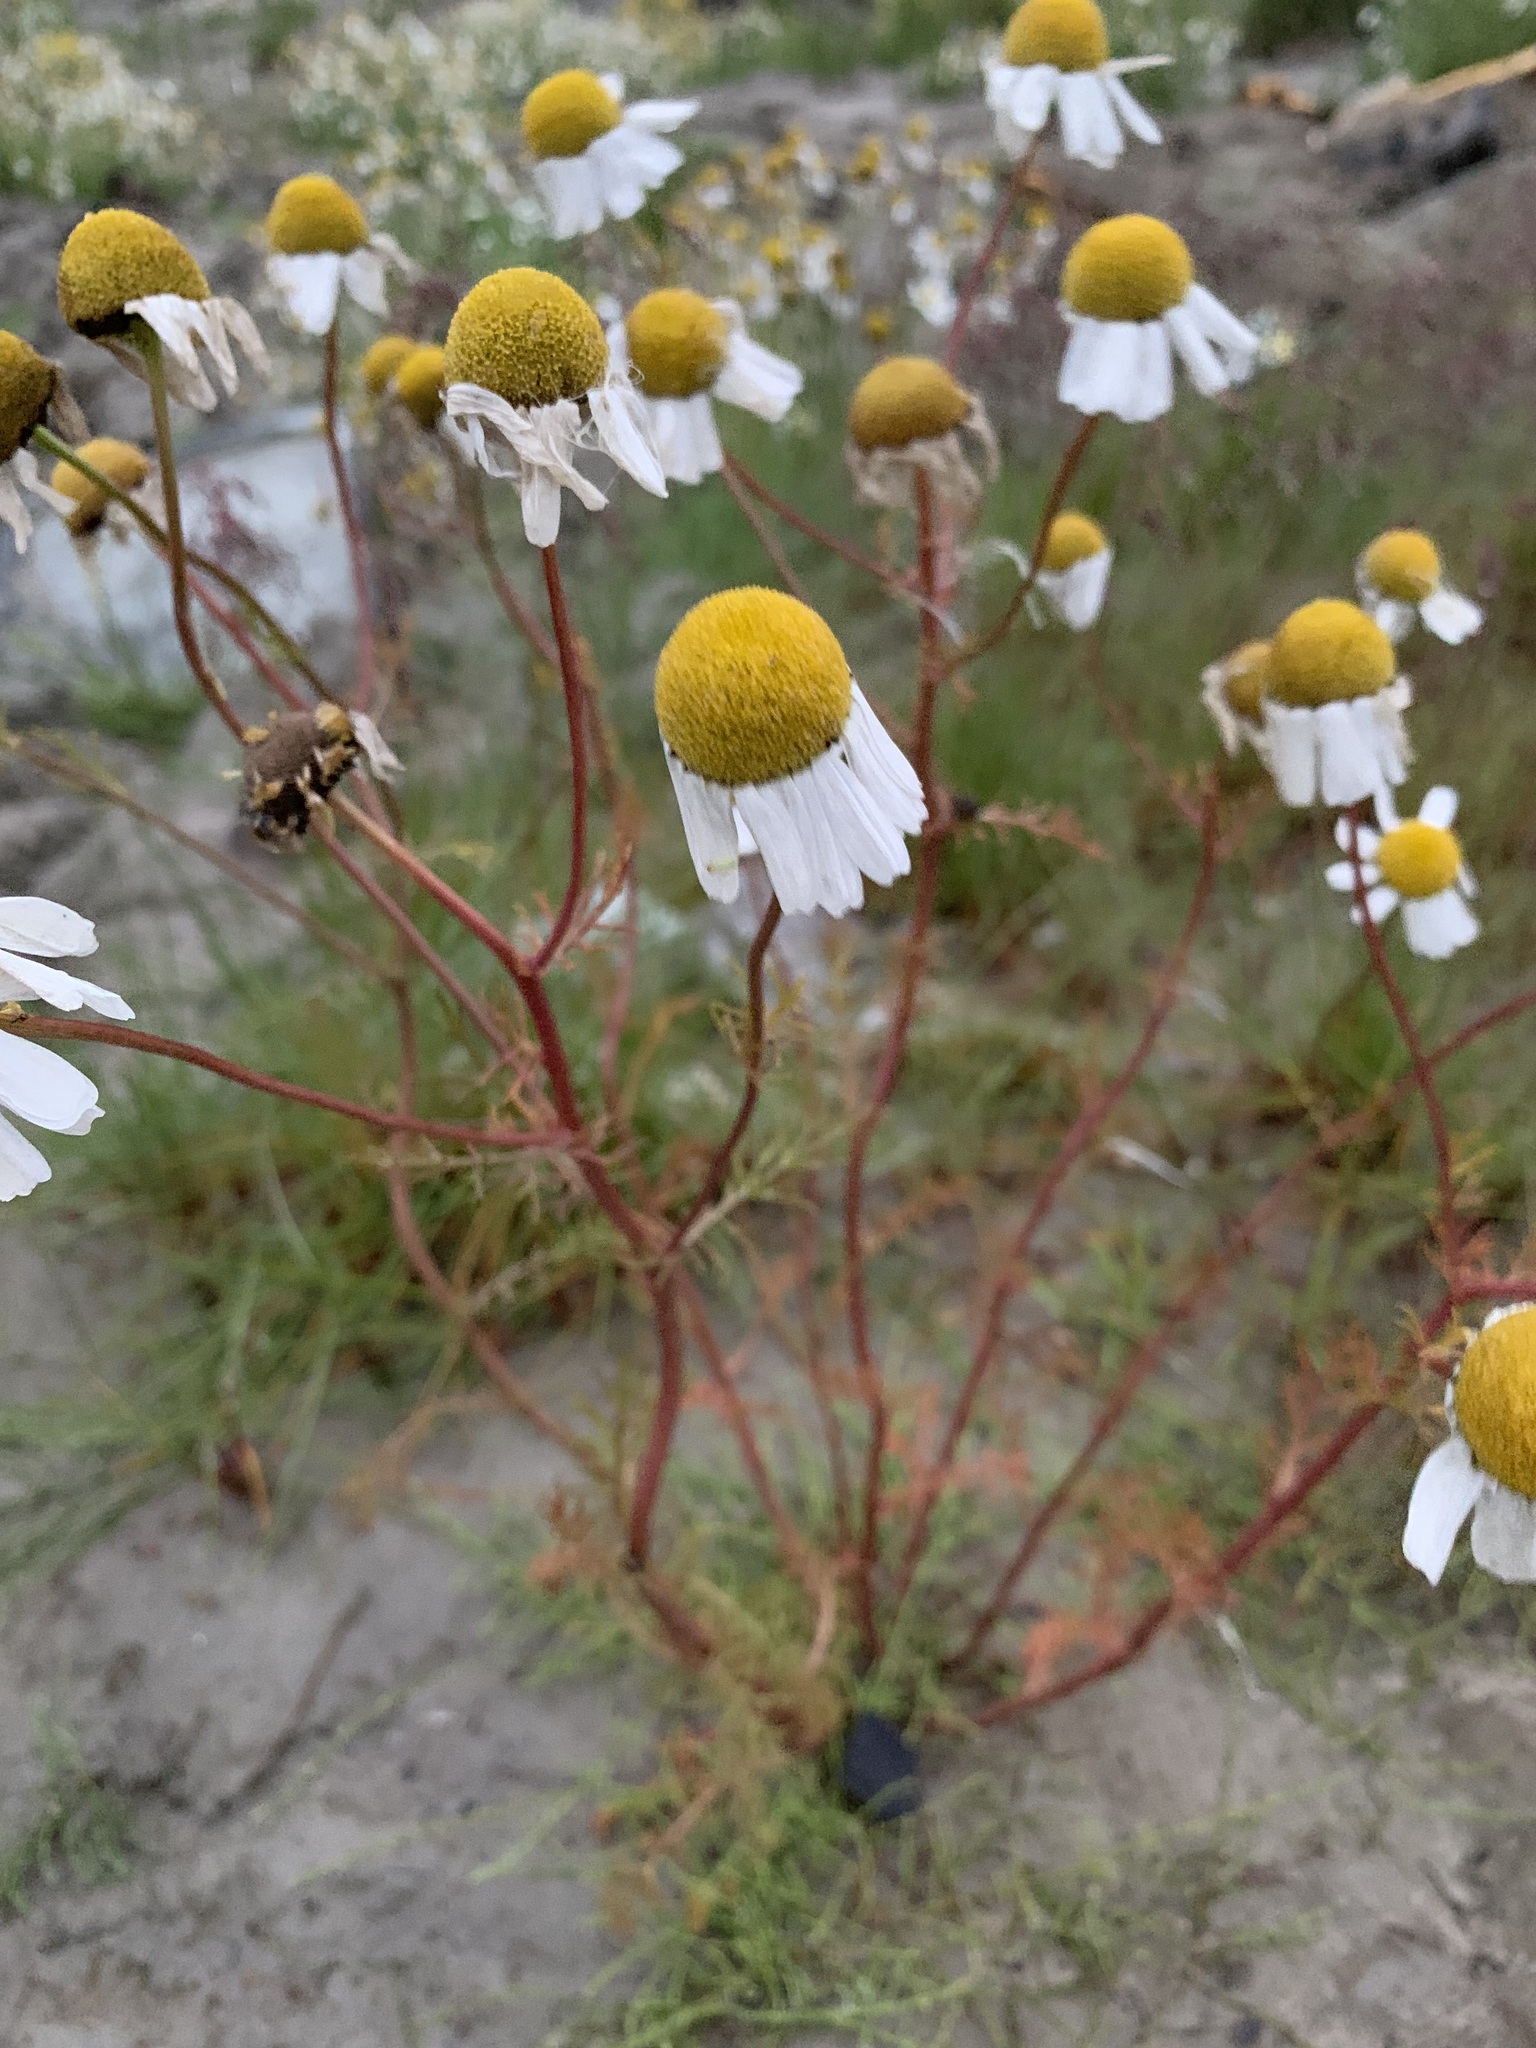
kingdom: Plantae
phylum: Tracheophyta
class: Magnoliopsida
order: Asterales
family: Asteraceae
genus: Tripleurospermum
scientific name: Tripleurospermum hookeri
